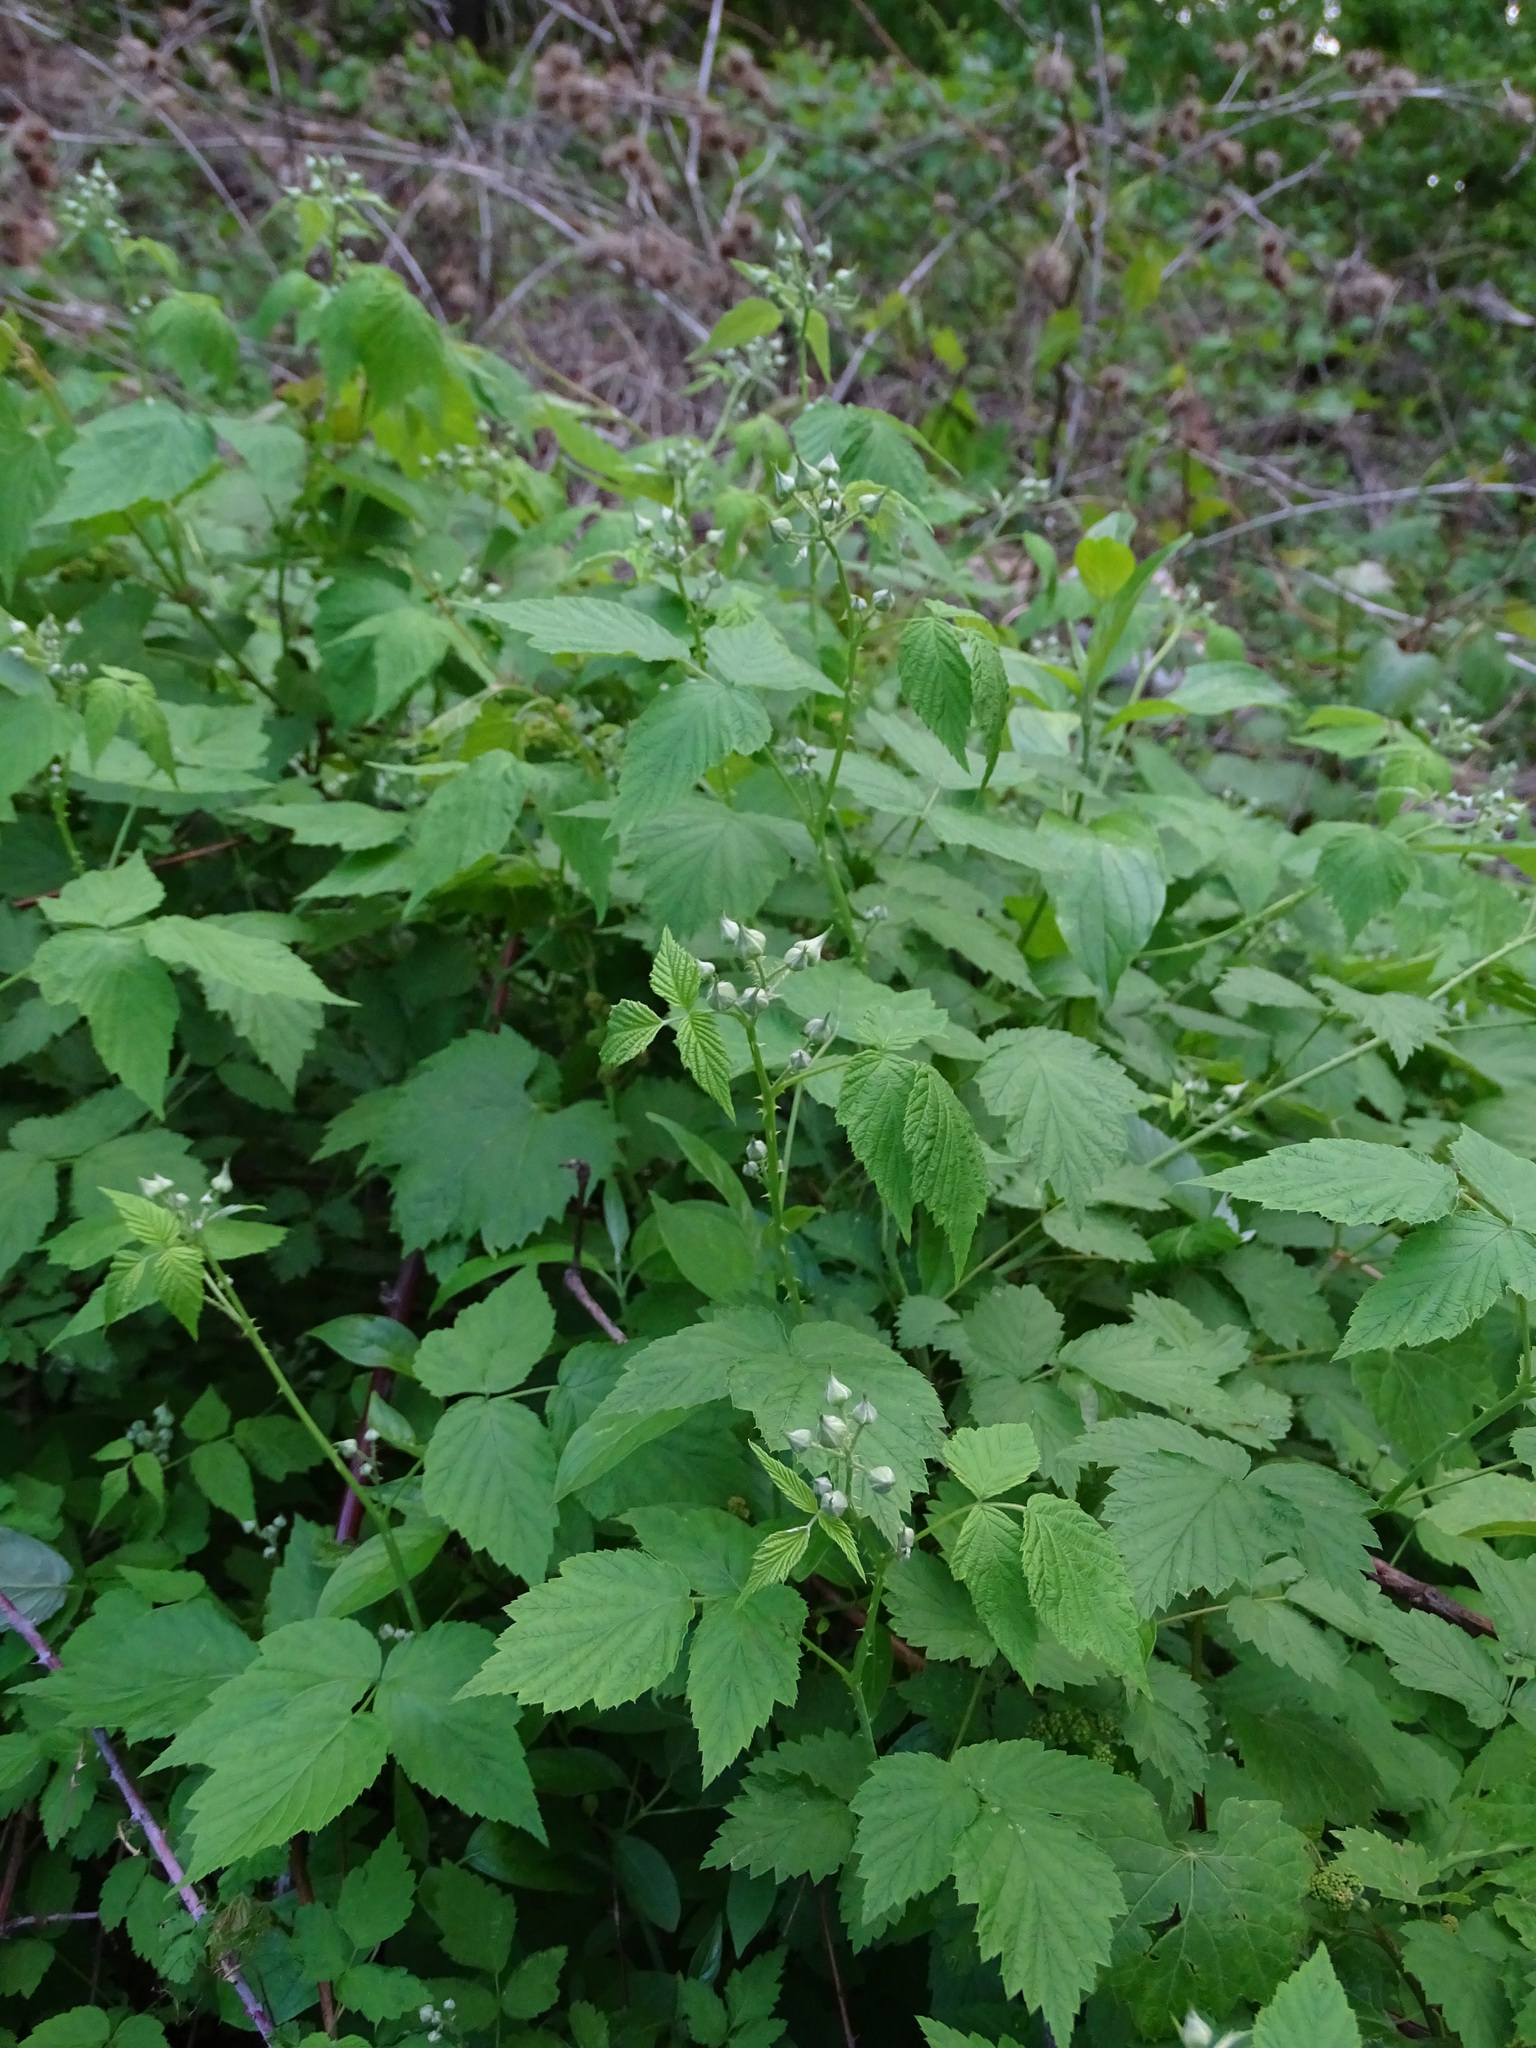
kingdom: Plantae
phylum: Tracheophyta
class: Magnoliopsida
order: Rosales
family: Rosaceae
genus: Rubus
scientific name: Rubus occidentalis
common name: Black raspberry
